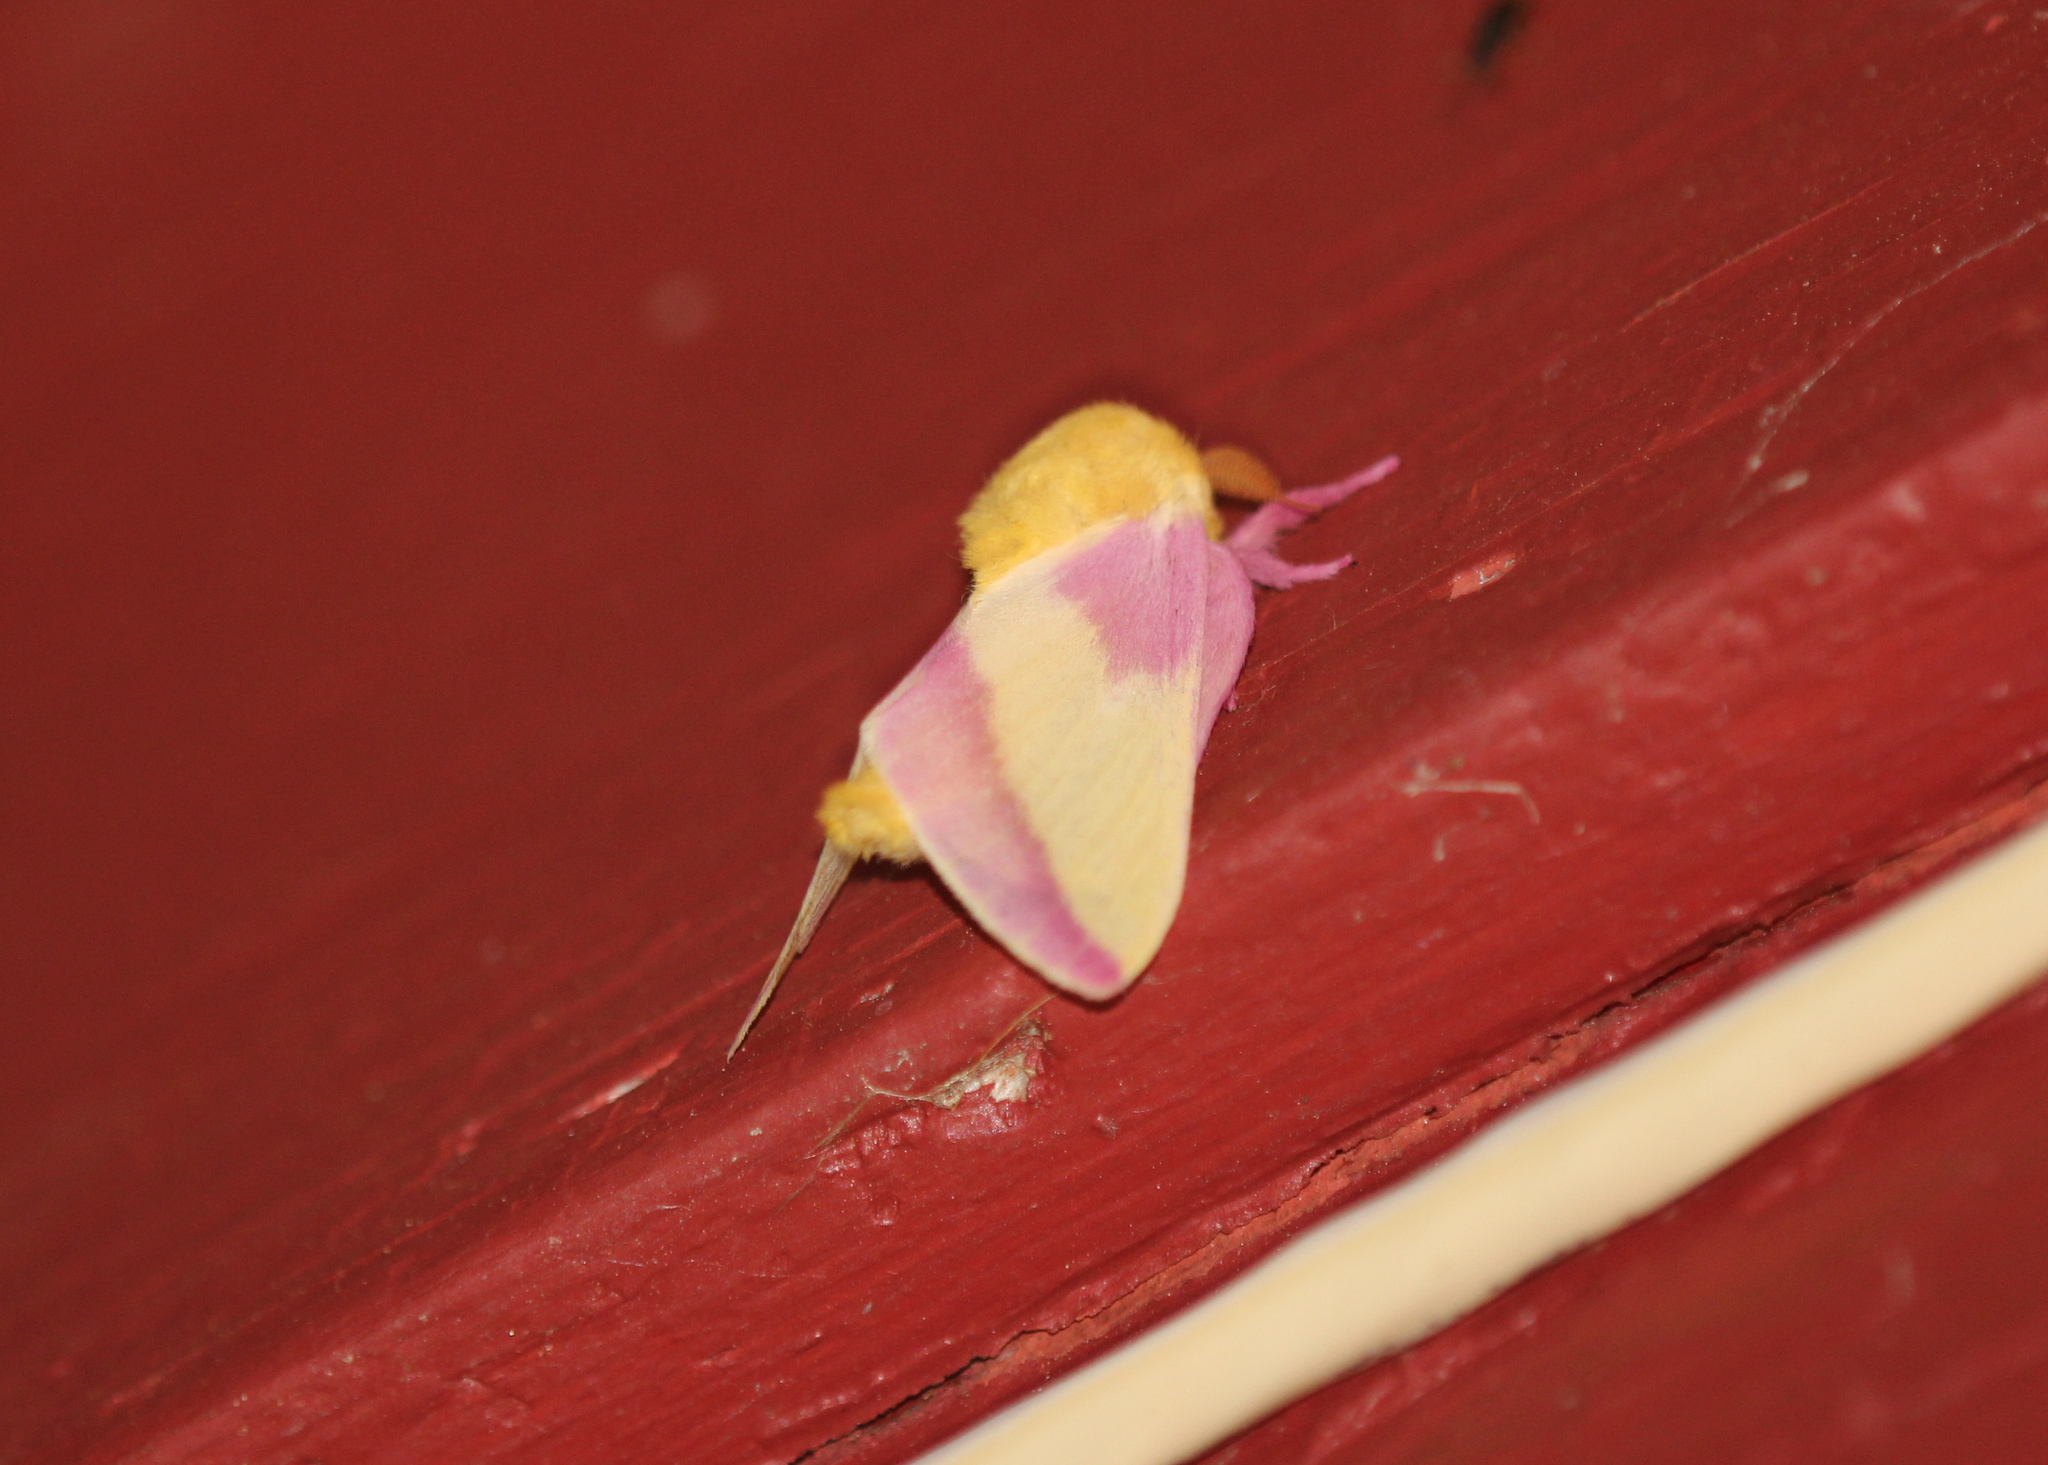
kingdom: Animalia
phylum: Arthropoda
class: Insecta
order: Lepidoptera
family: Saturniidae
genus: Dryocampa
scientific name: Dryocampa rubicunda
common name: Rosy maple moth
